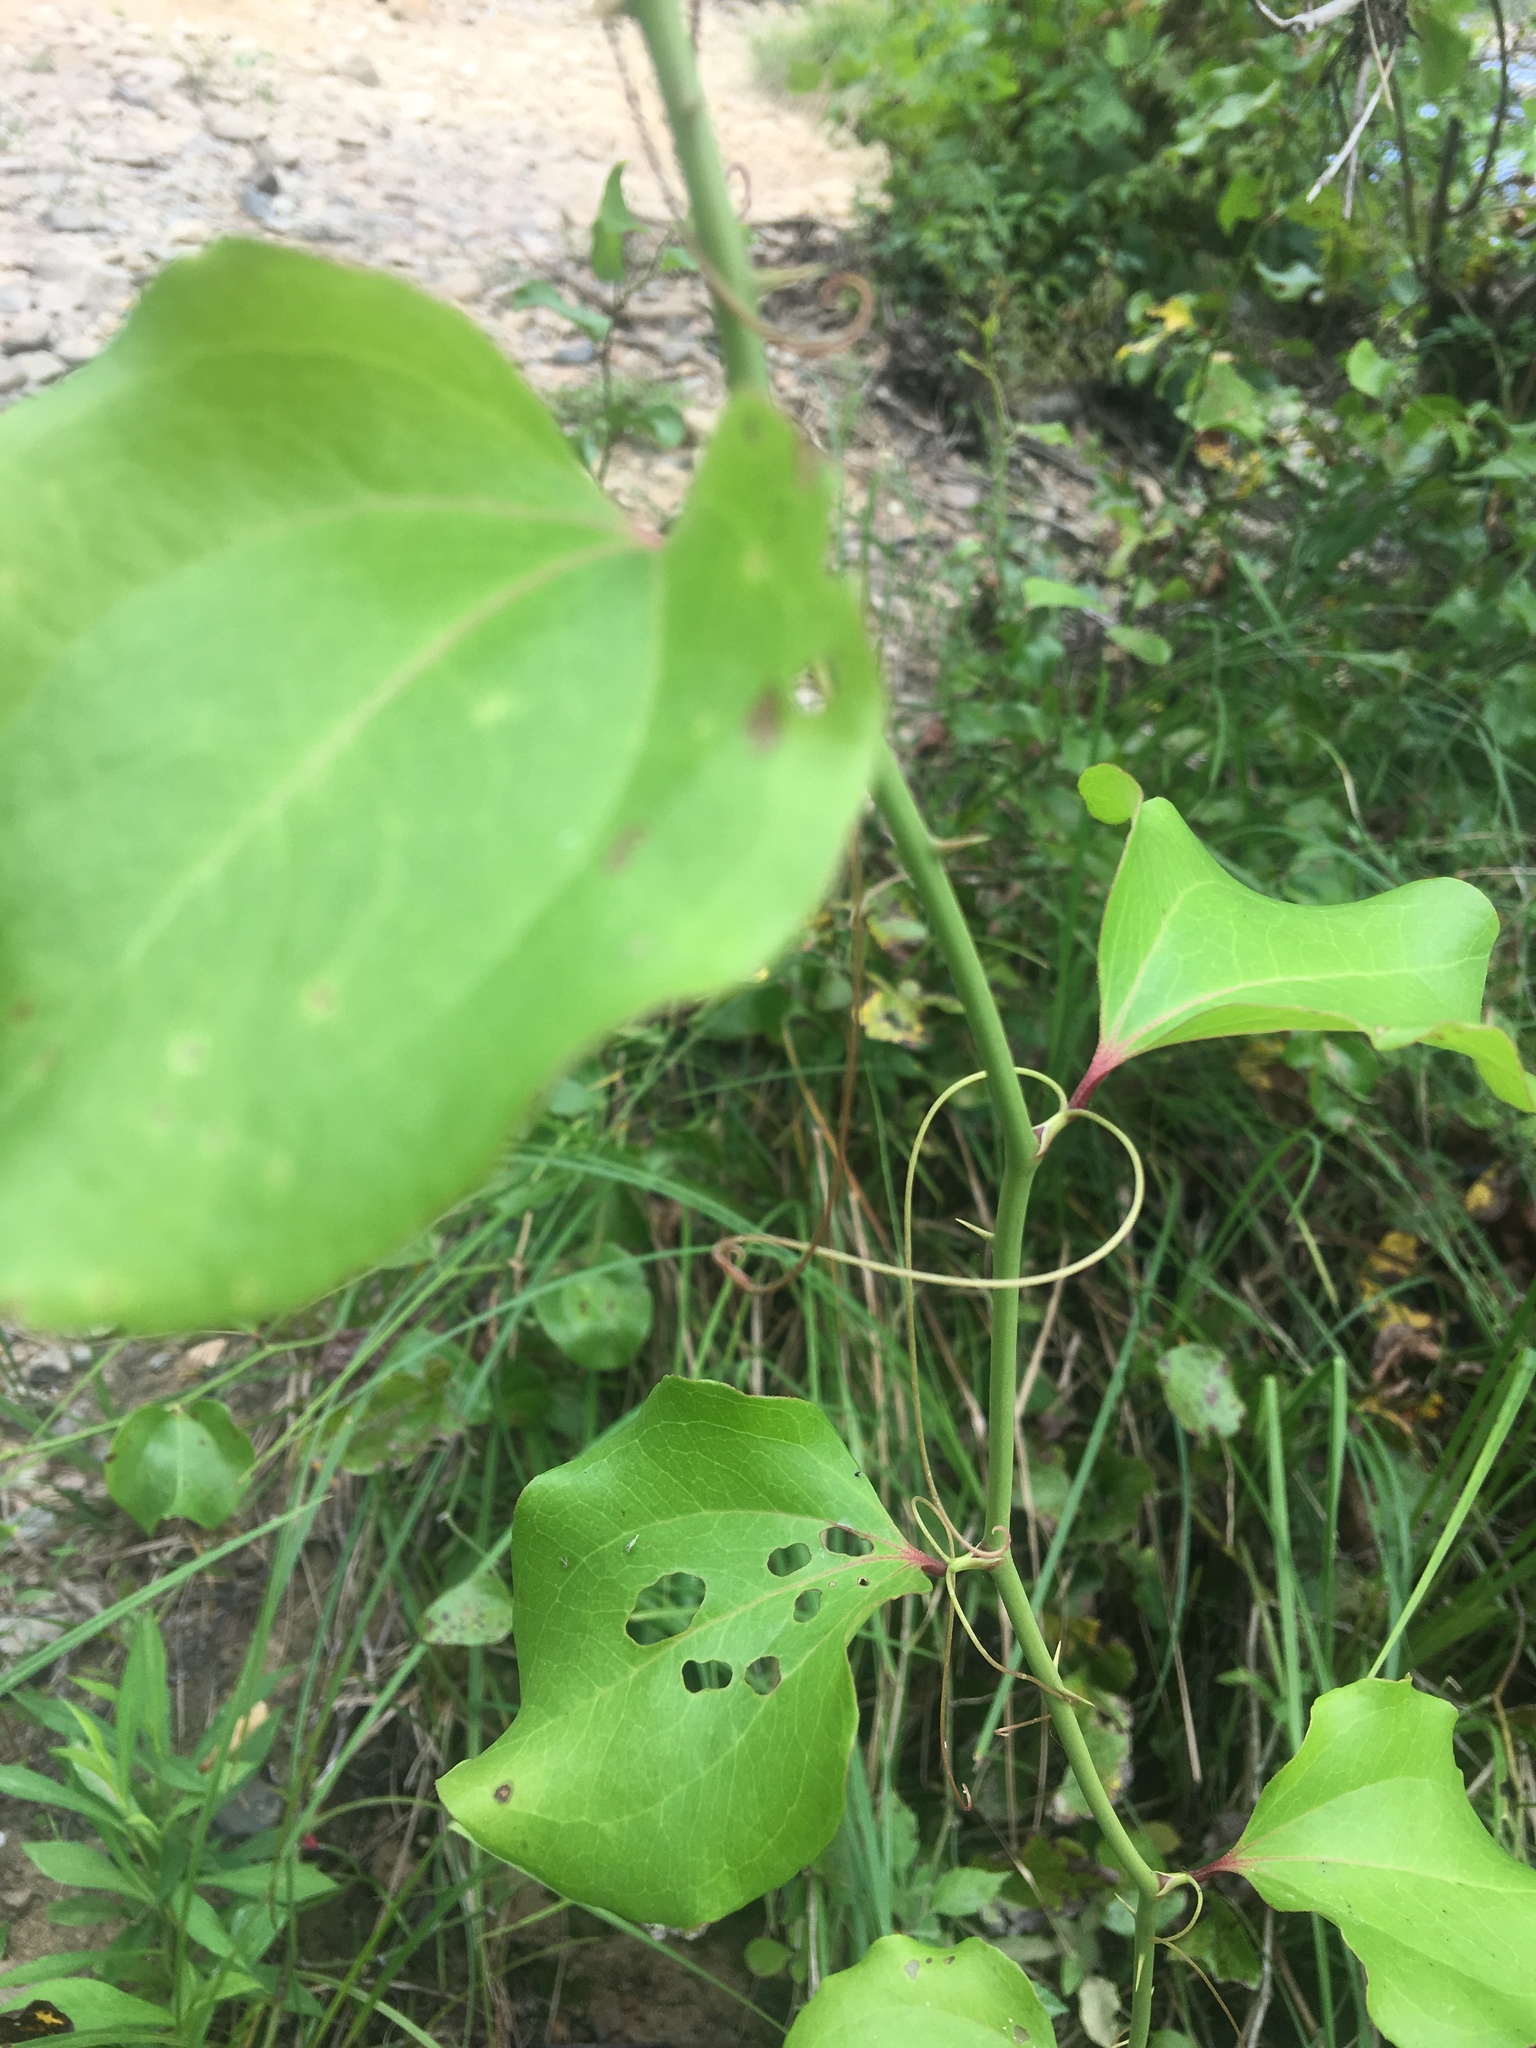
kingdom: Plantae
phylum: Tracheophyta
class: Liliopsida
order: Liliales
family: Smilacaceae
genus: Smilax
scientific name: Smilax rotundifolia
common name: Bullbriar
